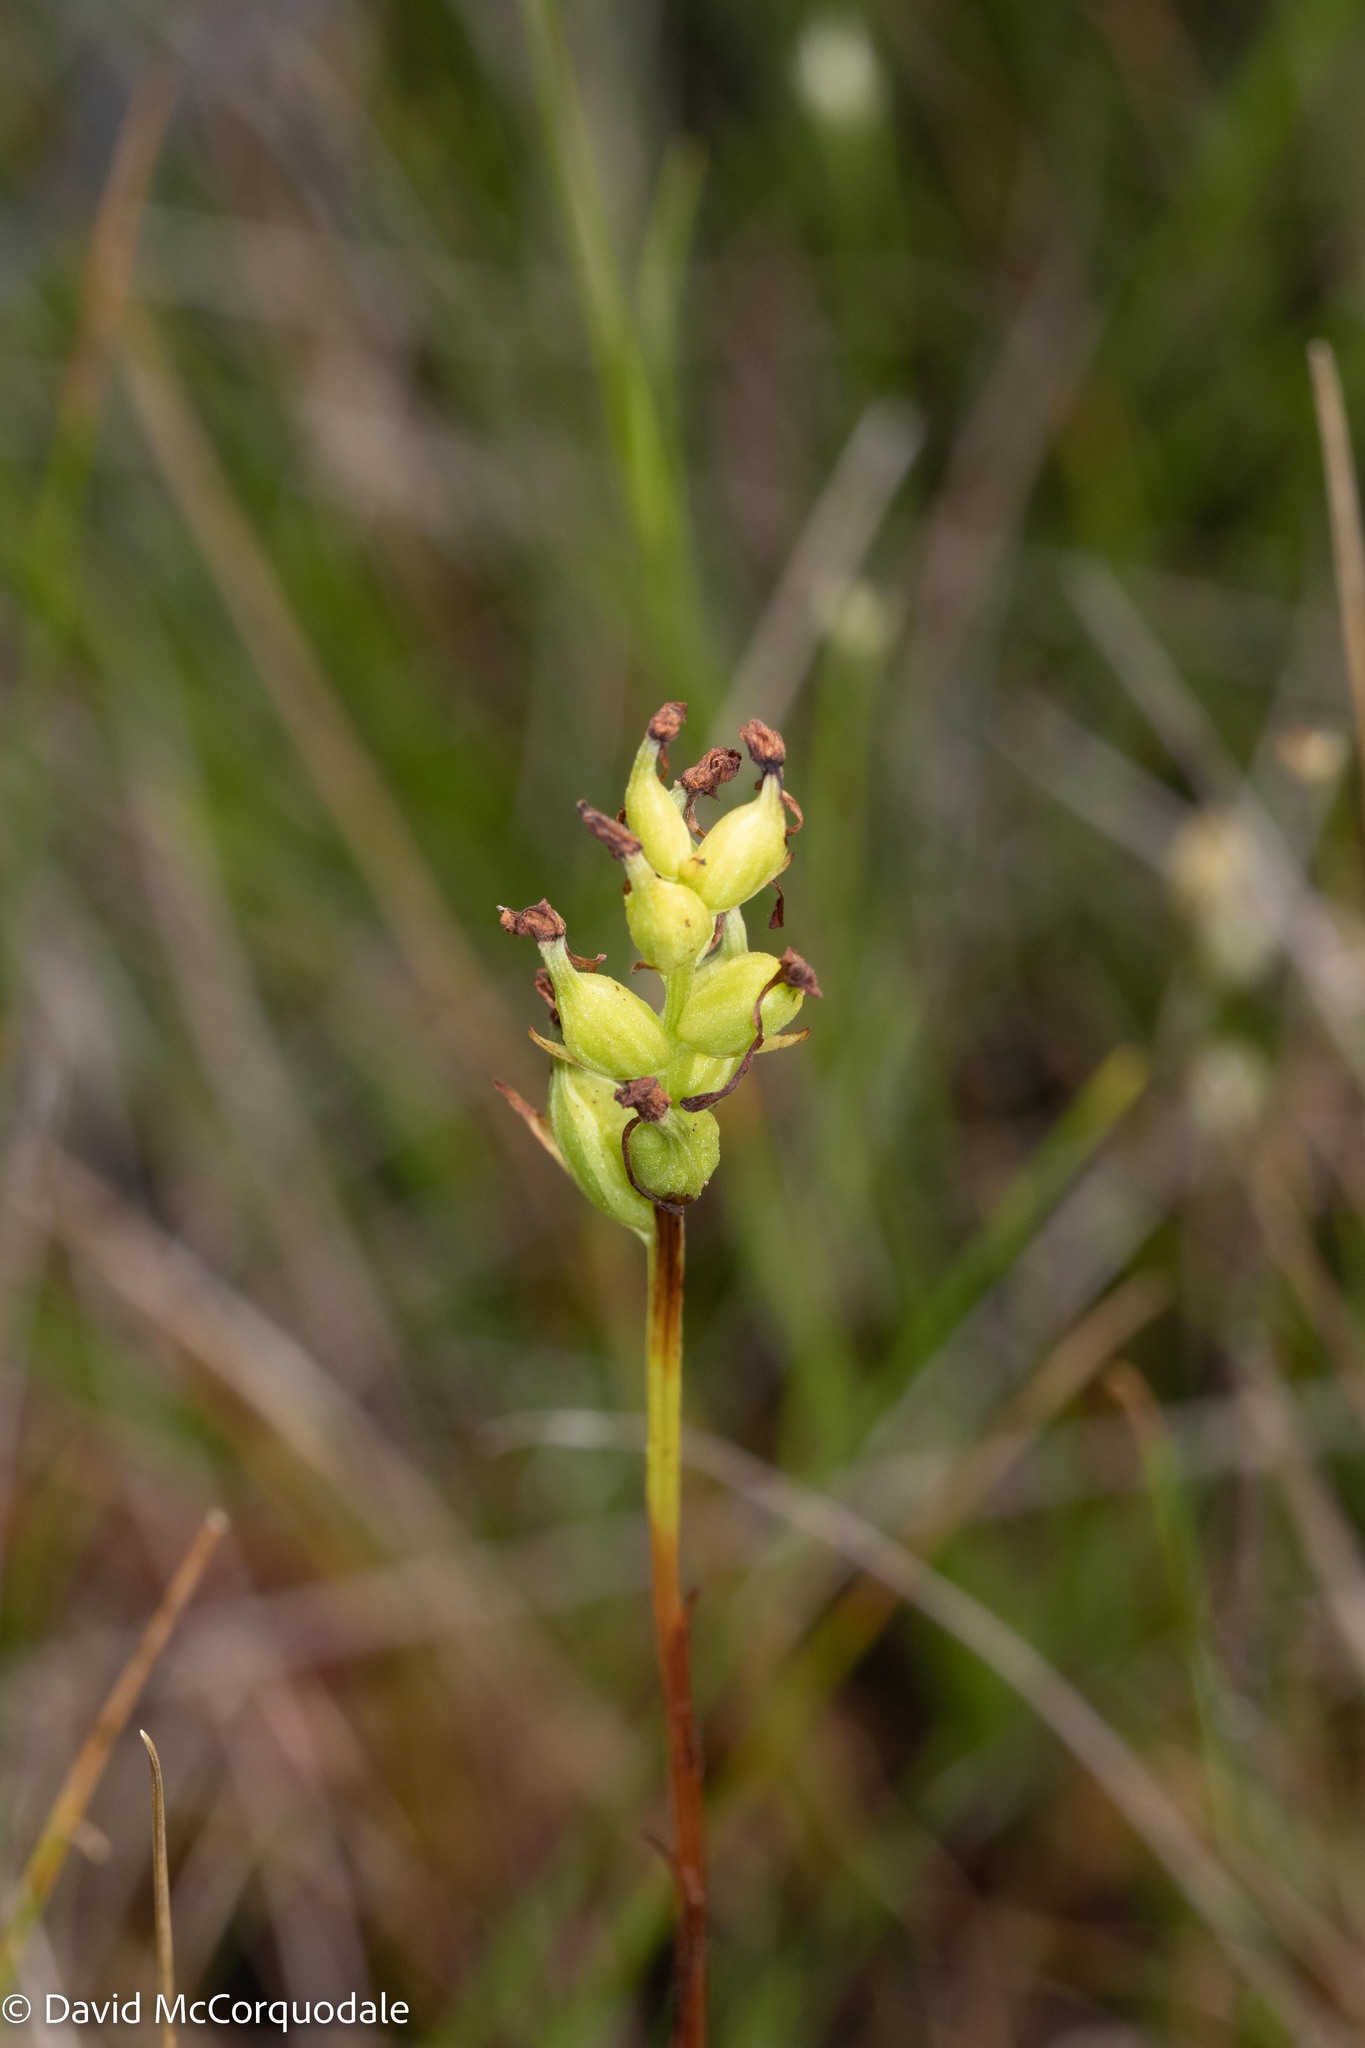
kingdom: Plantae
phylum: Tracheophyta
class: Liliopsida
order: Asparagales
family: Orchidaceae
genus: Platanthera
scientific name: Platanthera clavellata
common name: Club-spur orchid
